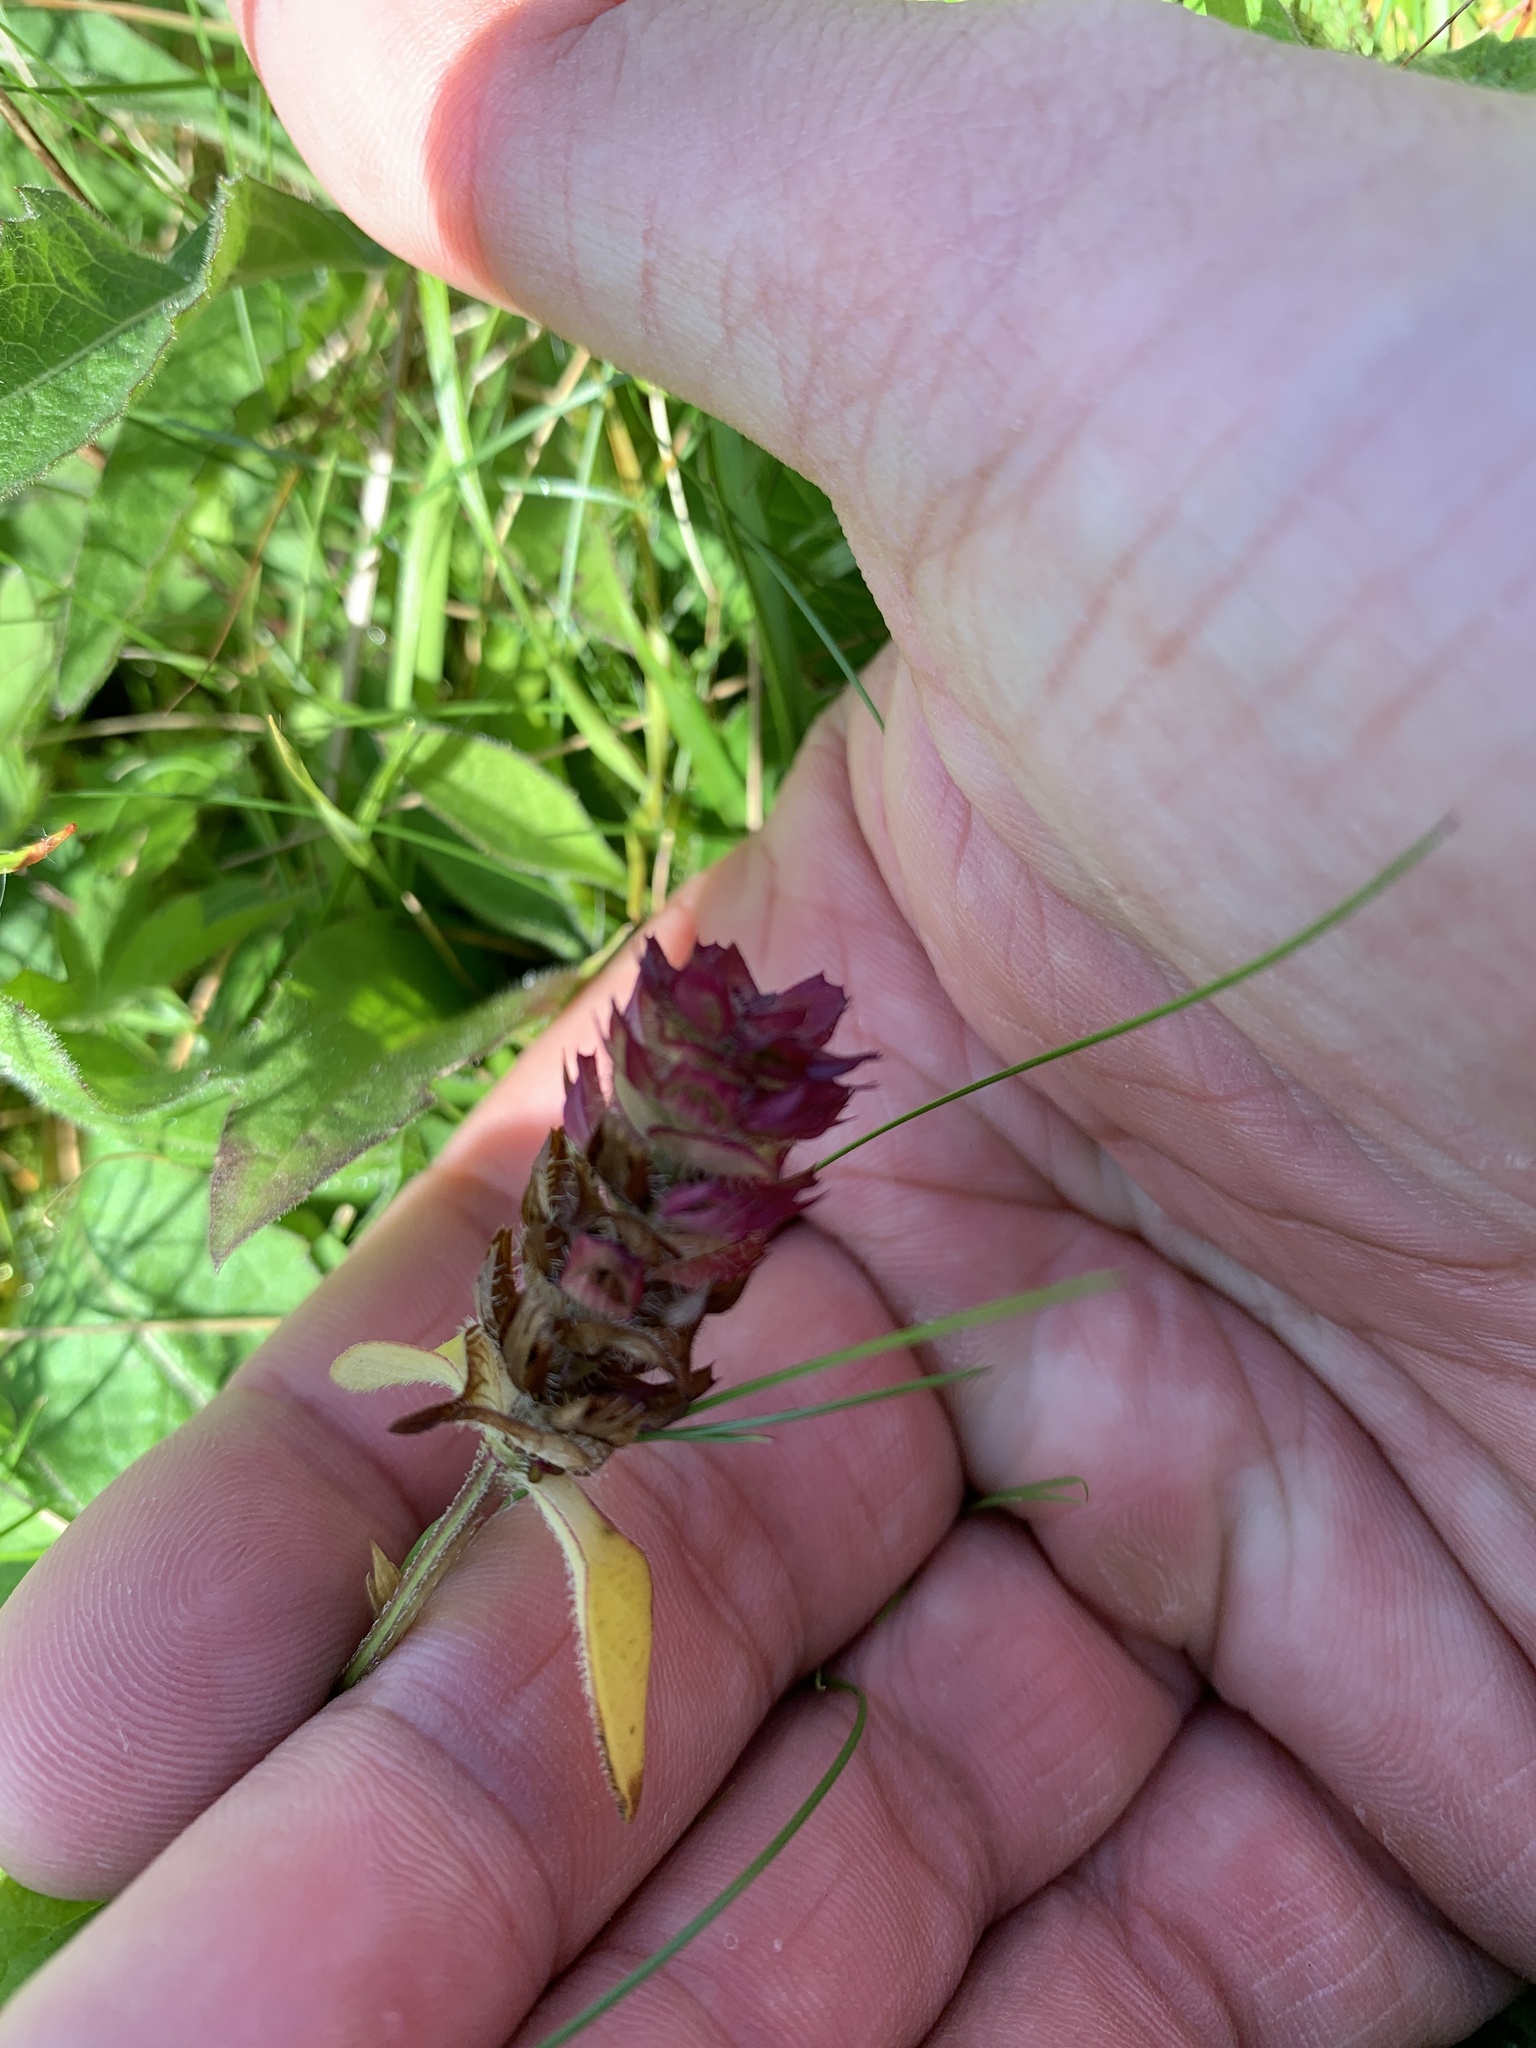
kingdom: Plantae
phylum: Tracheophyta
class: Magnoliopsida
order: Lamiales
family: Lamiaceae
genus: Prunella
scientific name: Prunella vulgaris
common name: Heal-all
